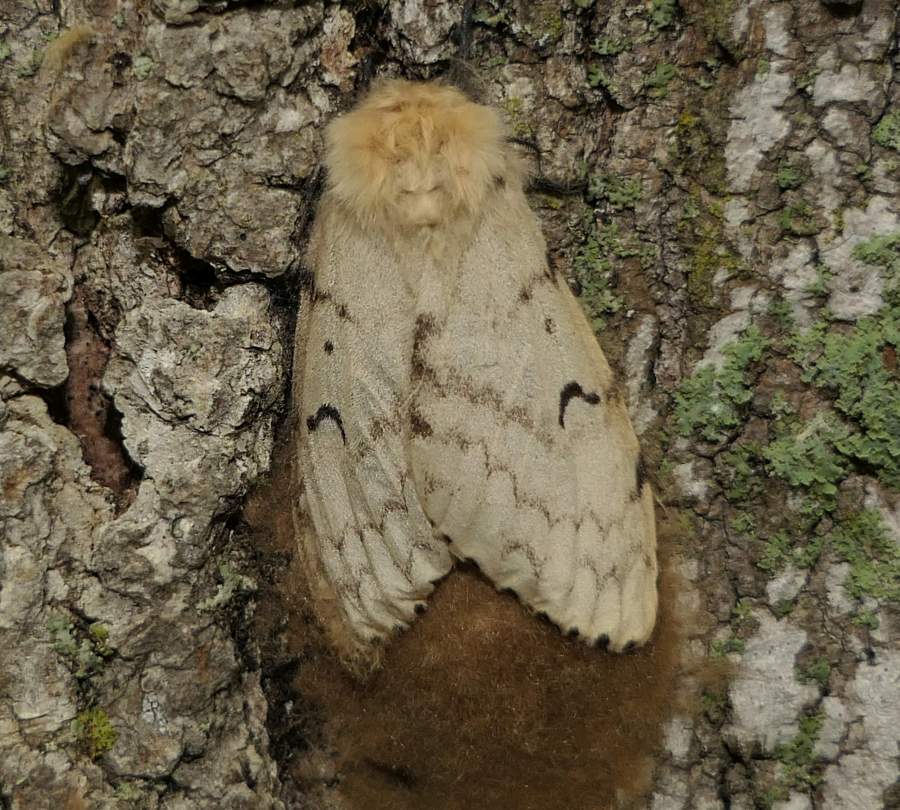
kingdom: Animalia
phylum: Arthropoda
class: Insecta
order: Lepidoptera
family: Erebidae
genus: Lymantria
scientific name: Lymantria dispar
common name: Gypsy moth
